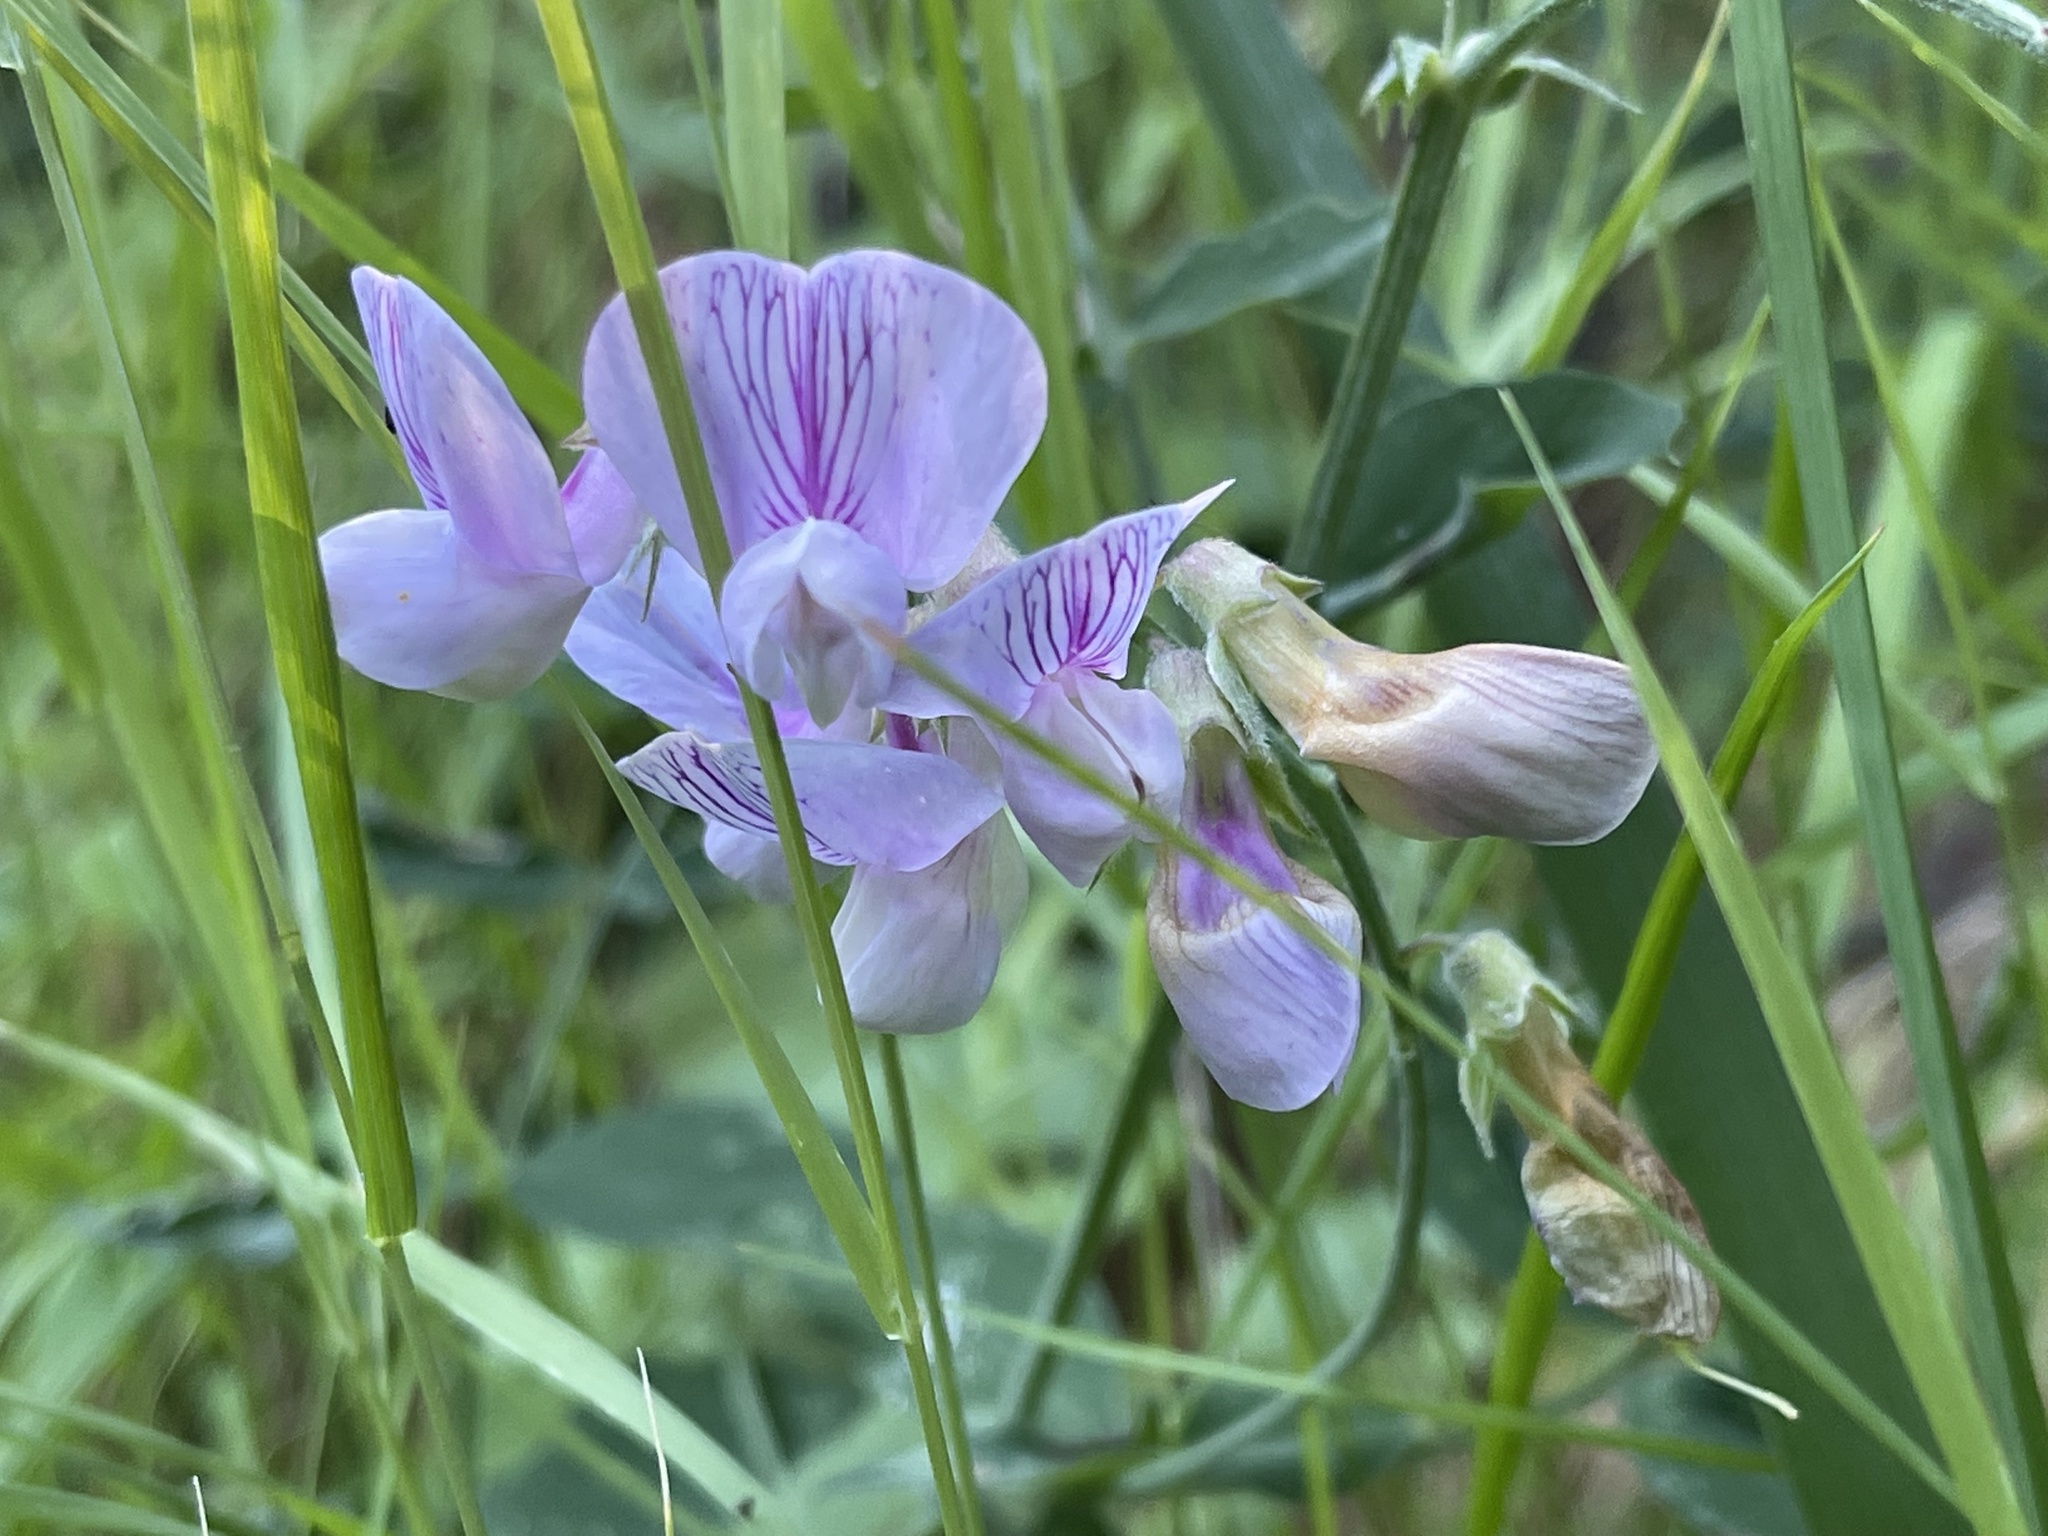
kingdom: Plantae
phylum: Tracheophyta
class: Magnoliopsida
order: Fabales
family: Fabaceae
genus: Lathyrus
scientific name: Lathyrus vestitus
